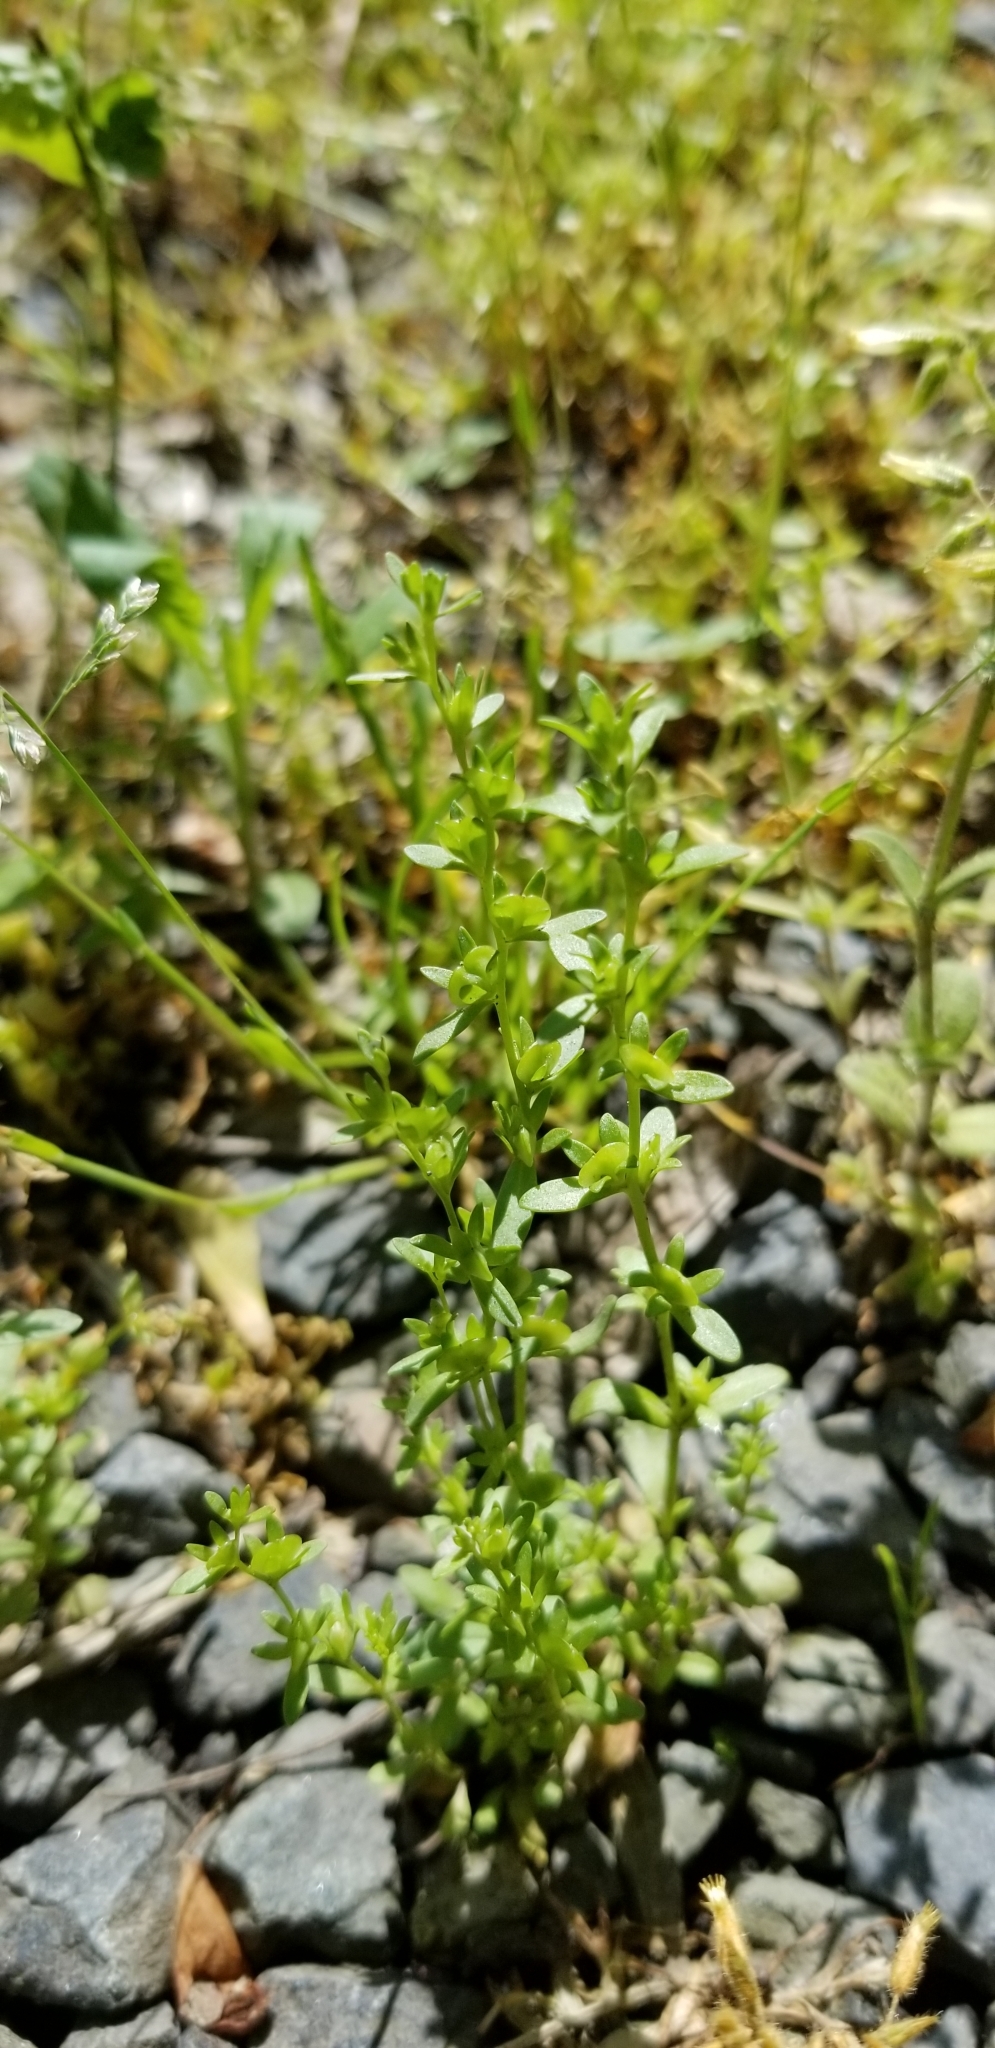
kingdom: Plantae
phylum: Tracheophyta
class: Magnoliopsida
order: Lamiales
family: Plantaginaceae
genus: Veronica
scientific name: Veronica peregrina
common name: Neckweed
